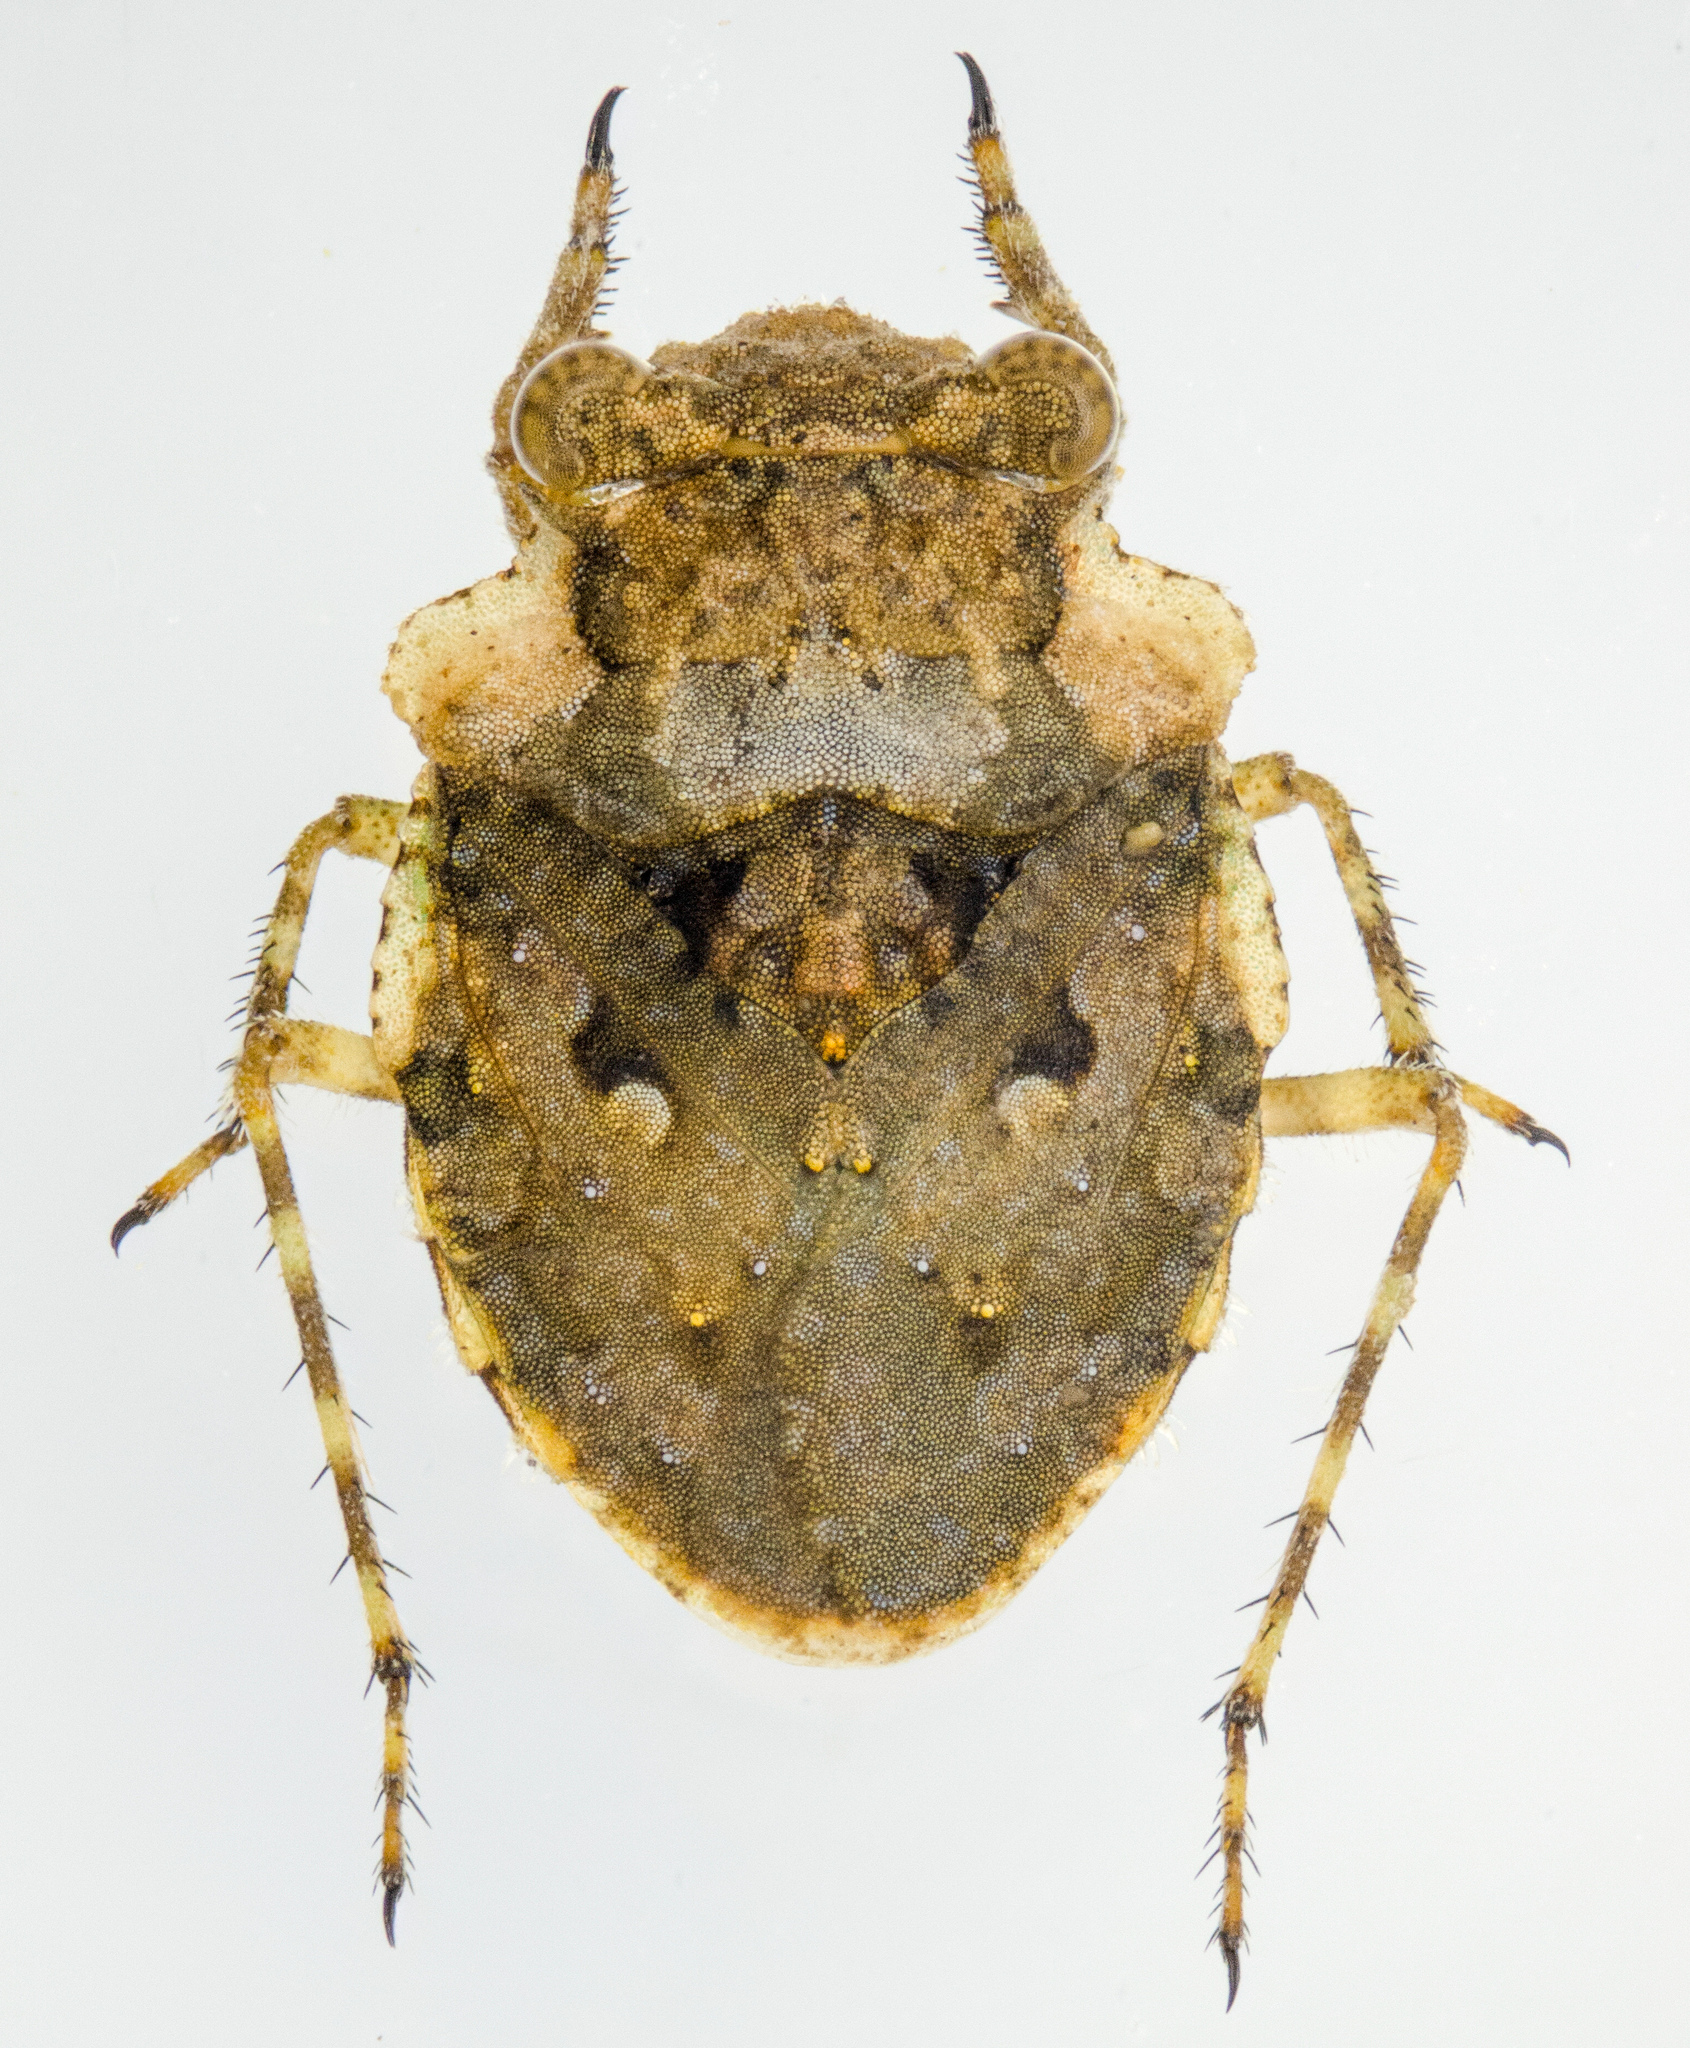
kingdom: Animalia
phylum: Arthropoda
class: Insecta
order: Hemiptera
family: Gelastocoridae
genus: Gelastocoris
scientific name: Gelastocoris oculatus
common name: Toad bug
